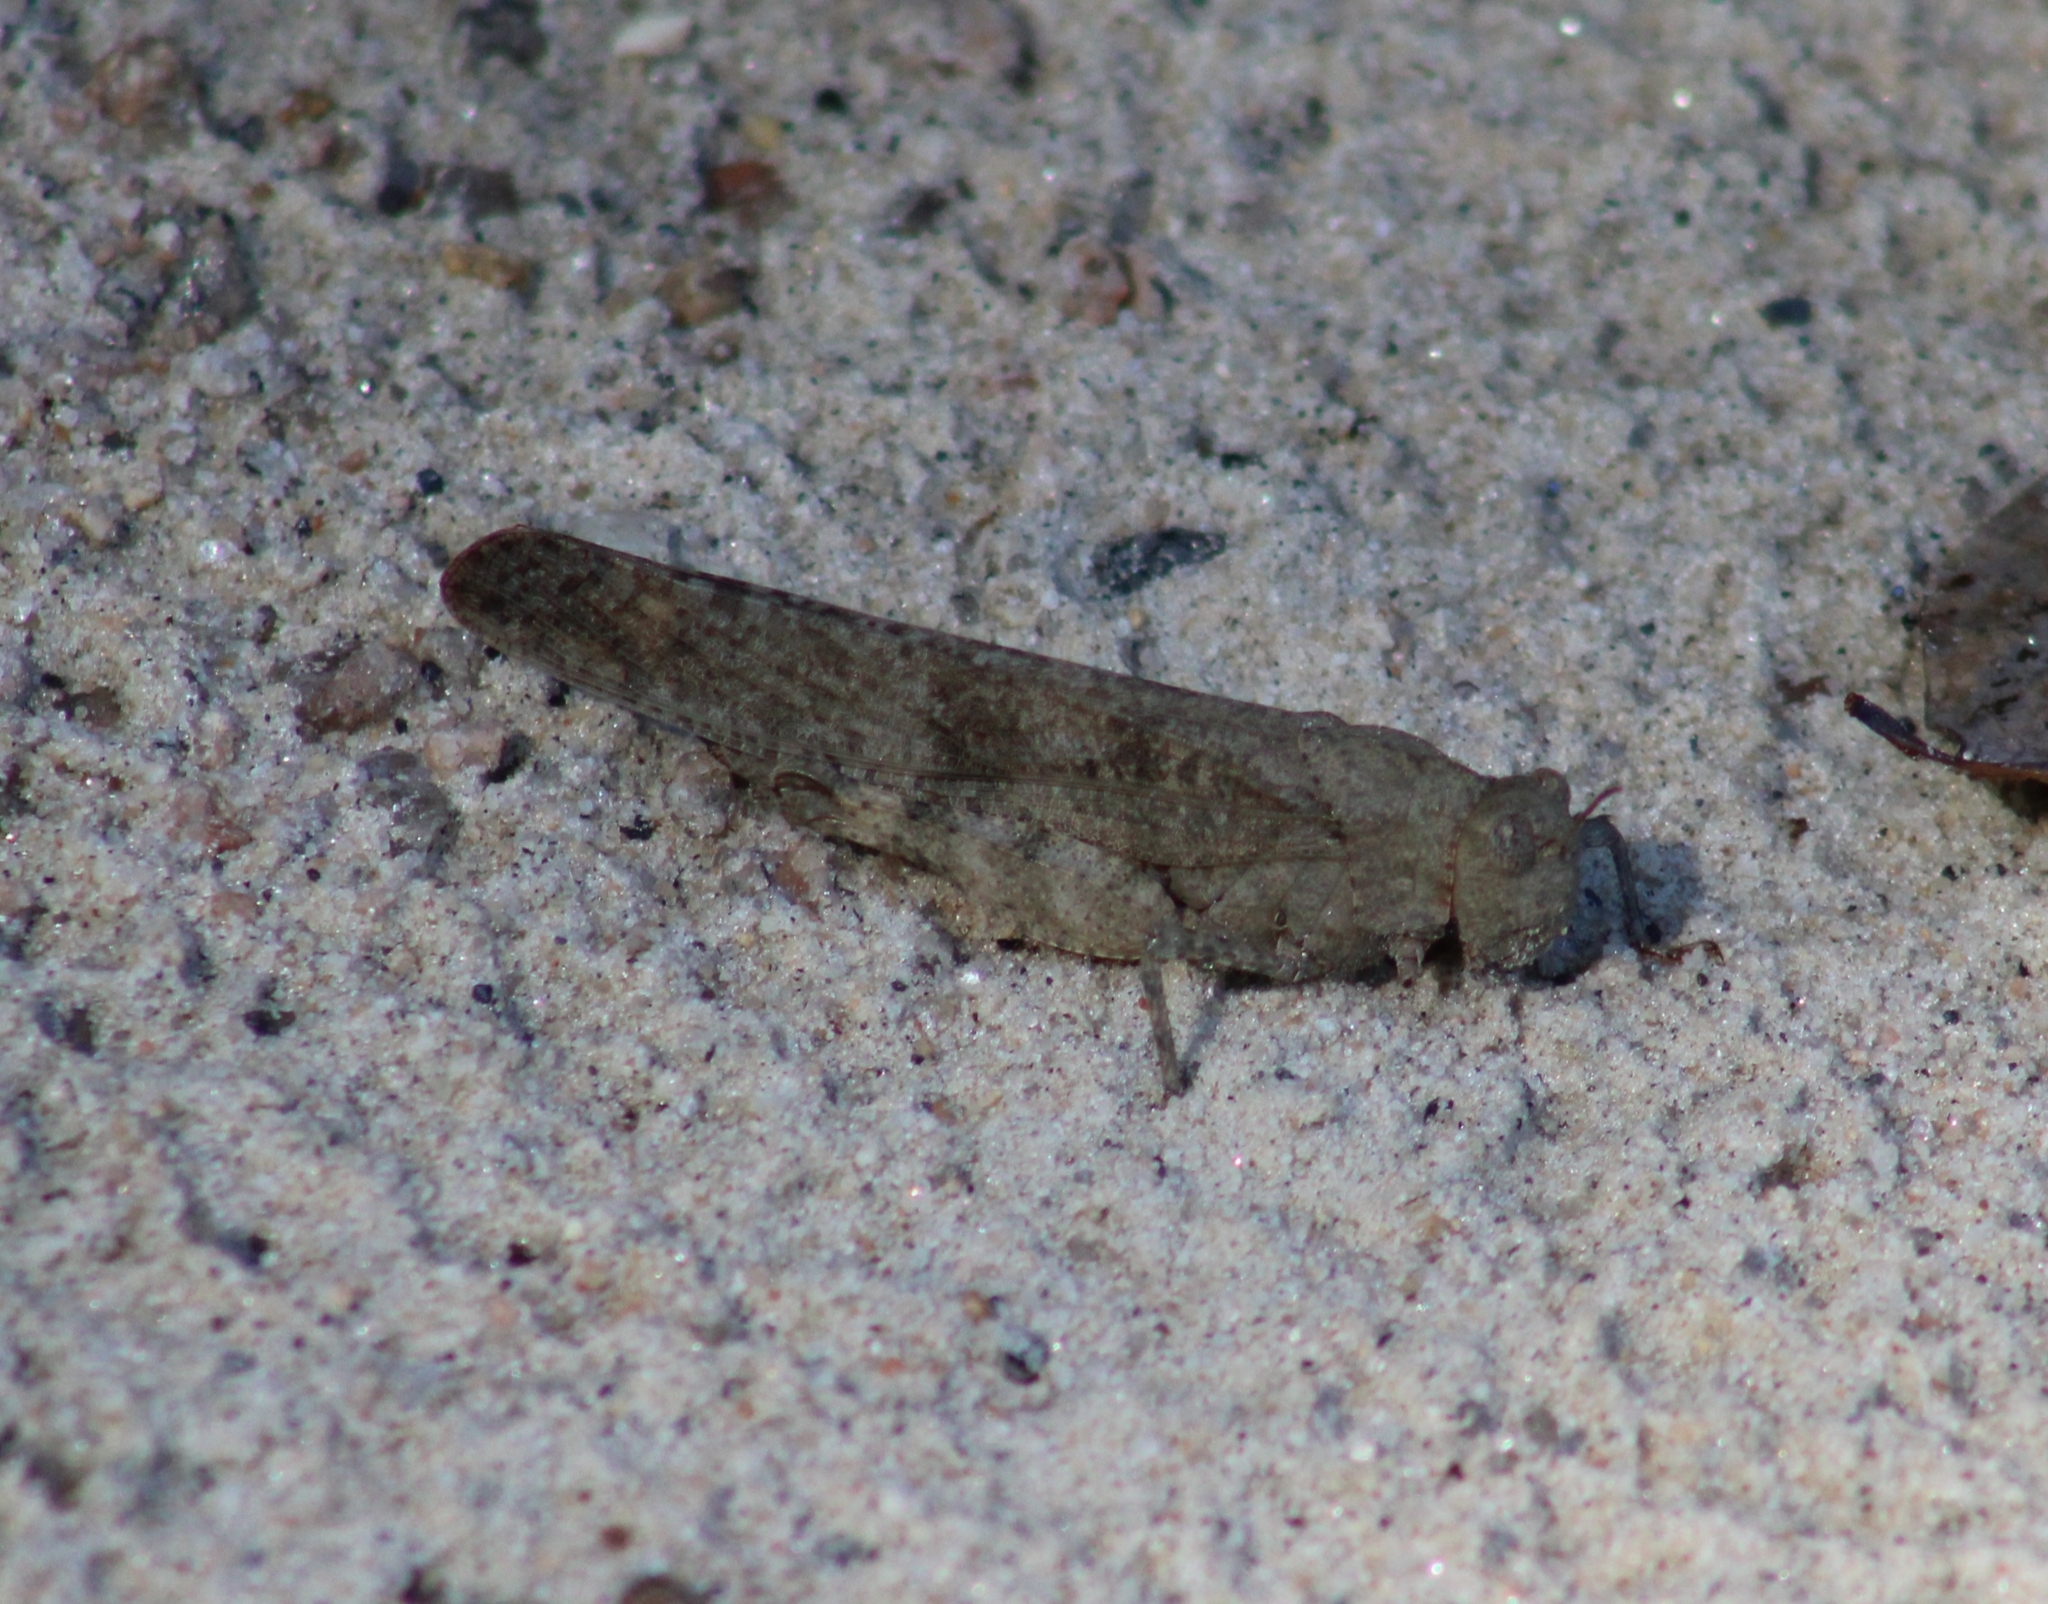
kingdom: Animalia
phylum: Arthropoda
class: Insecta
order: Orthoptera
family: Acrididae
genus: Dissosteira
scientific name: Dissosteira carolina
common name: Carolina grasshopper
